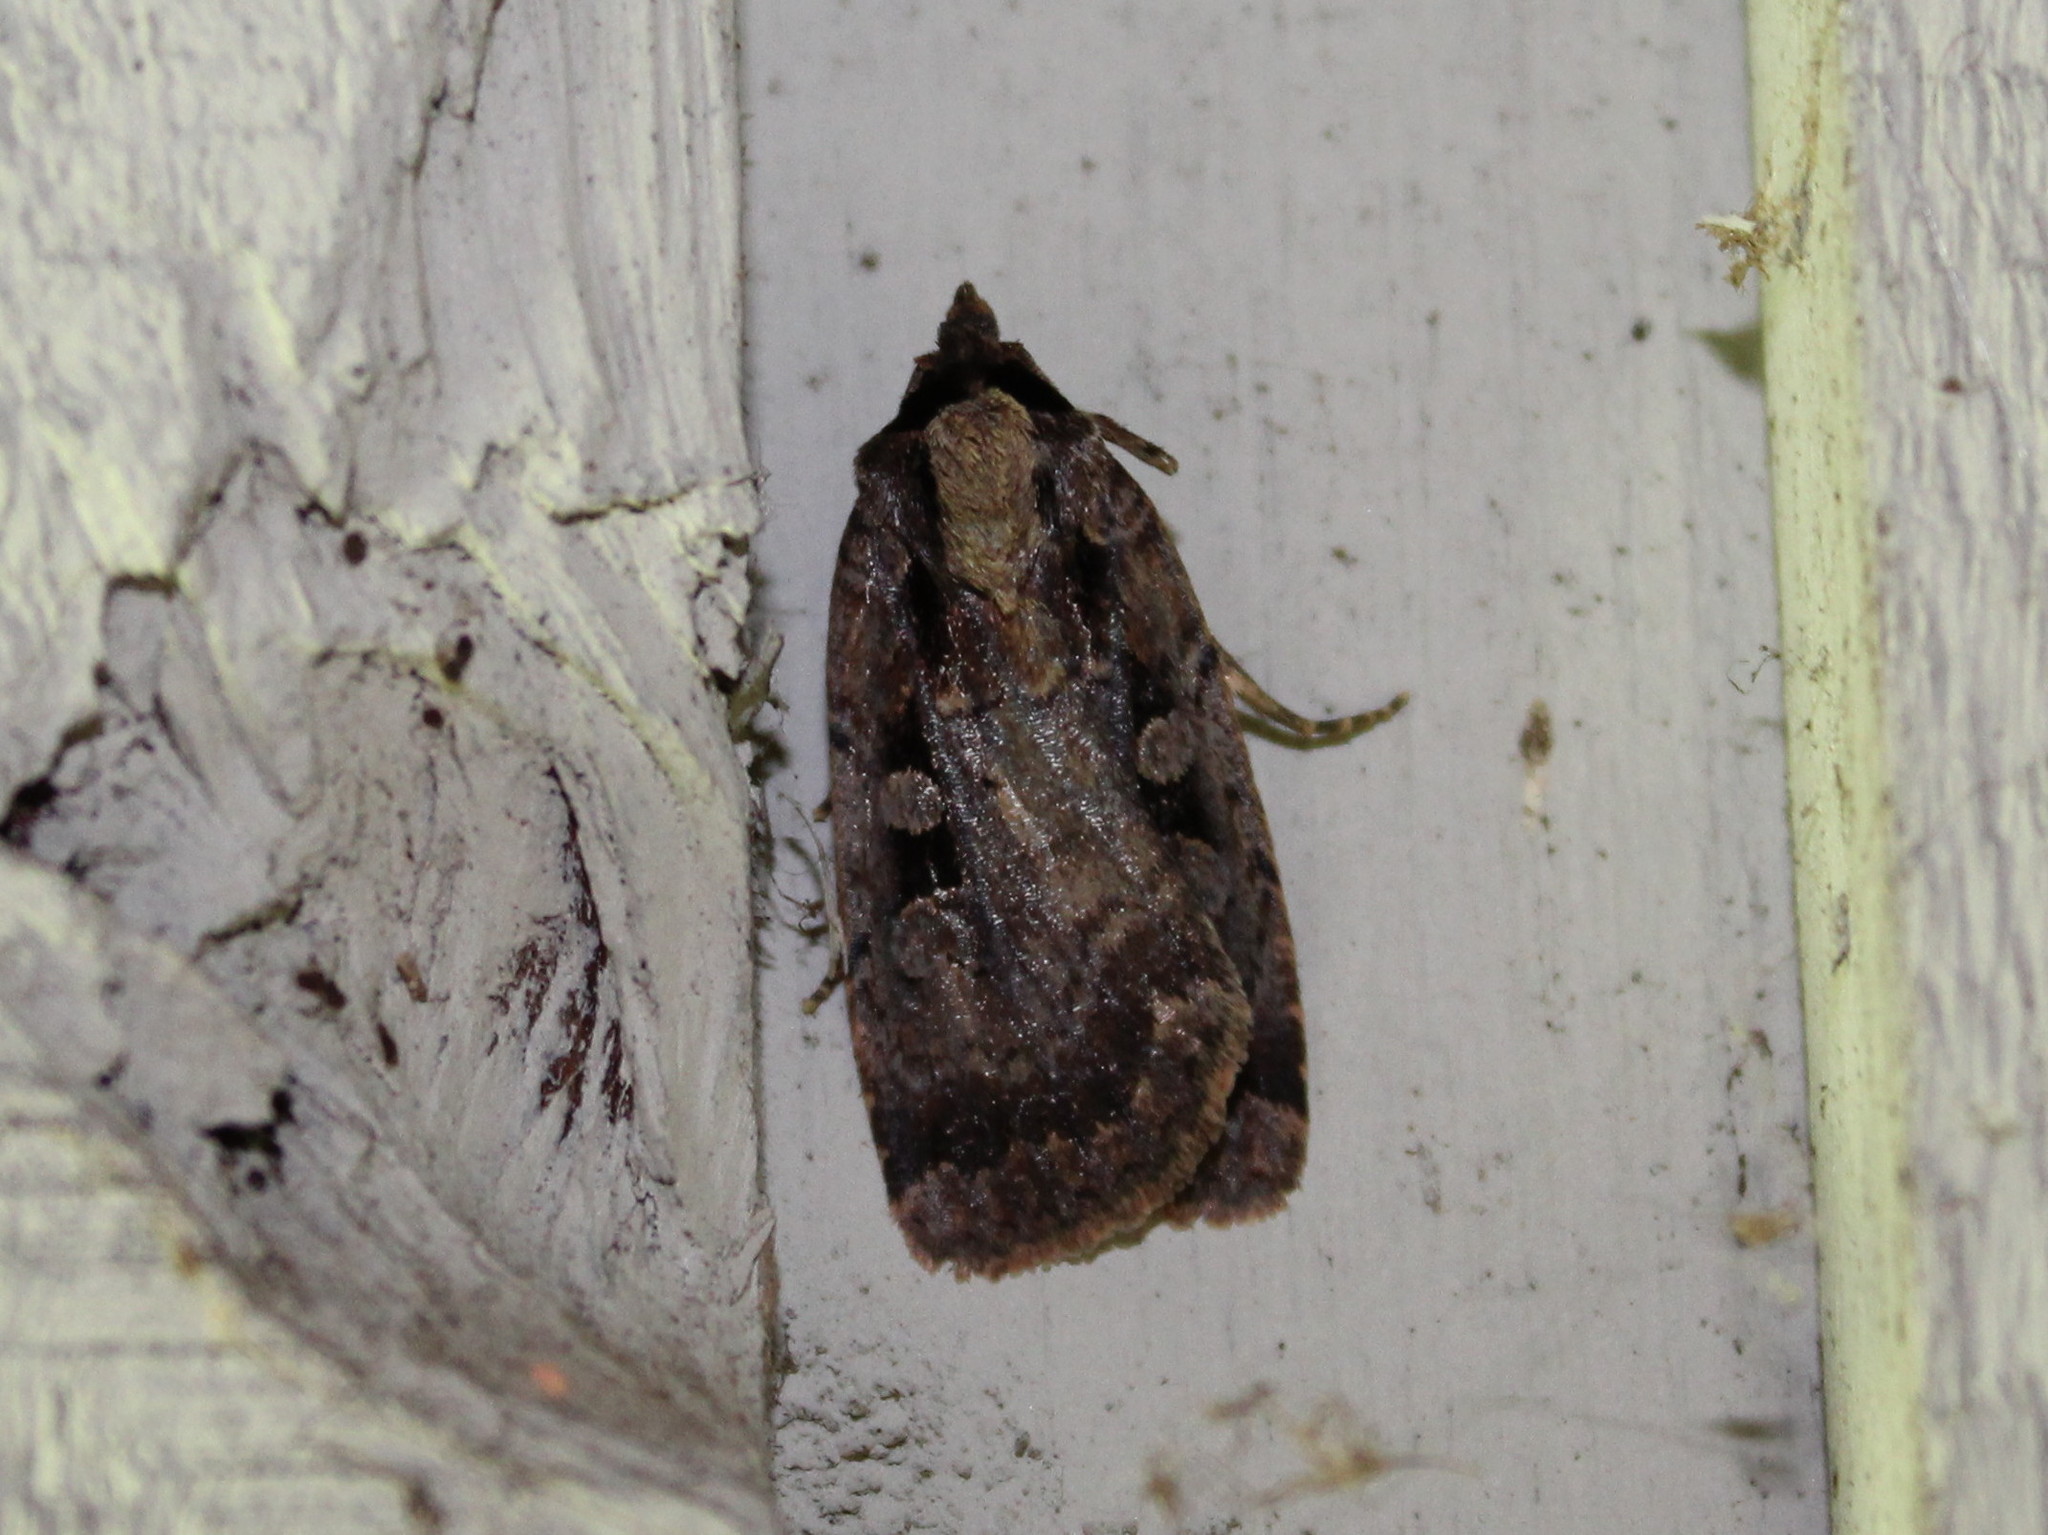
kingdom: Animalia
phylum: Arthropoda
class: Insecta
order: Lepidoptera
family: Noctuidae
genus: Eueretagrotis
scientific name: Eueretagrotis perattentus
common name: Two-spot dart moth
